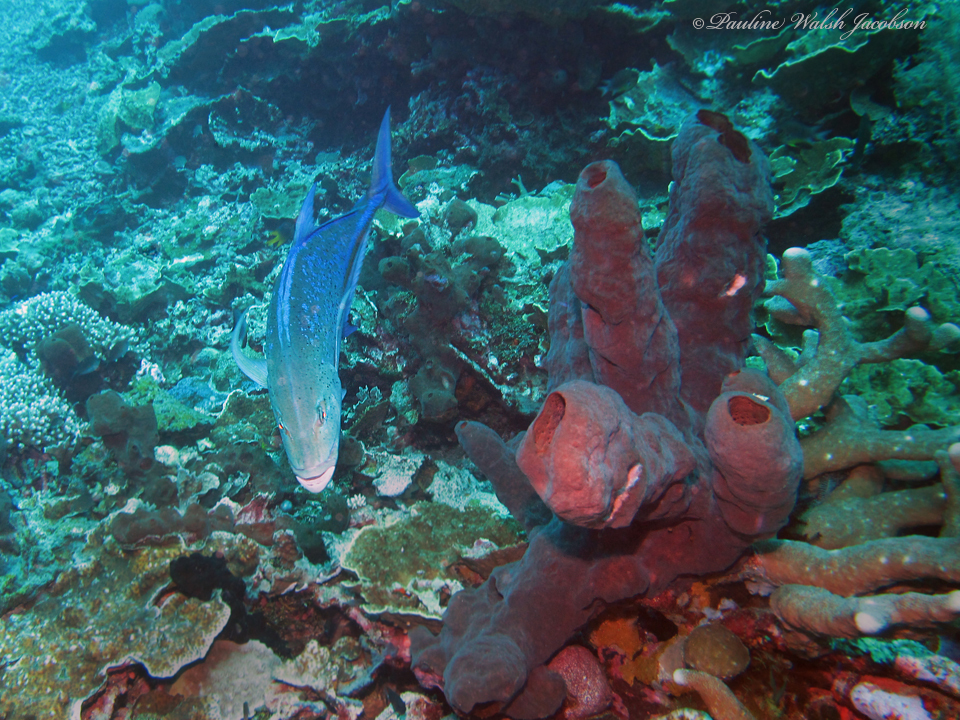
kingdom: Animalia
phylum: Chordata
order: Perciformes
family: Carangidae
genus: Caranx
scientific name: Caranx melampygus
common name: Bluefin trevally
